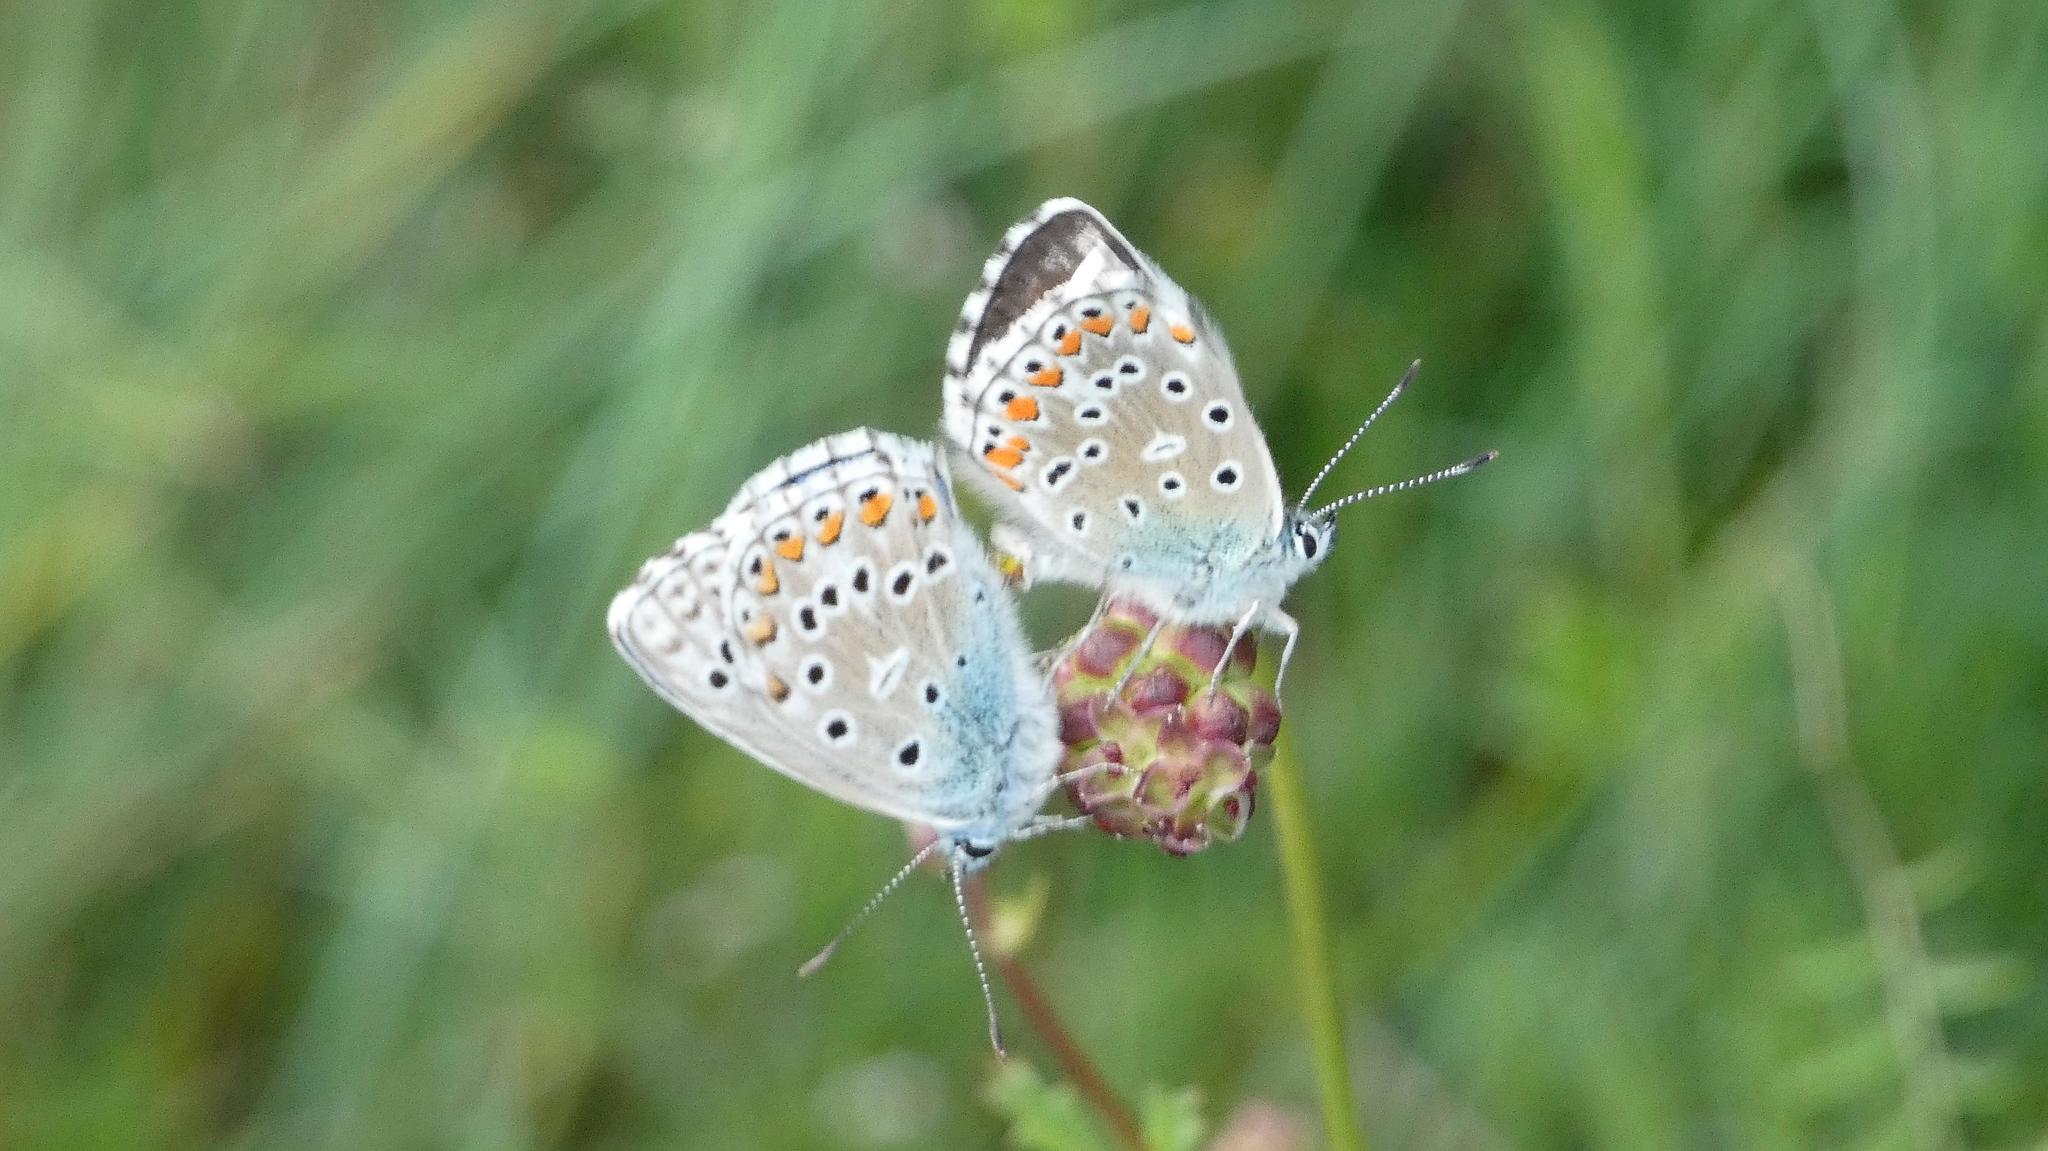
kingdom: Animalia
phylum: Arthropoda
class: Insecta
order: Lepidoptera
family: Lycaenidae
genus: Lysandra
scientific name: Lysandra bellargus
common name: Adonis blue
